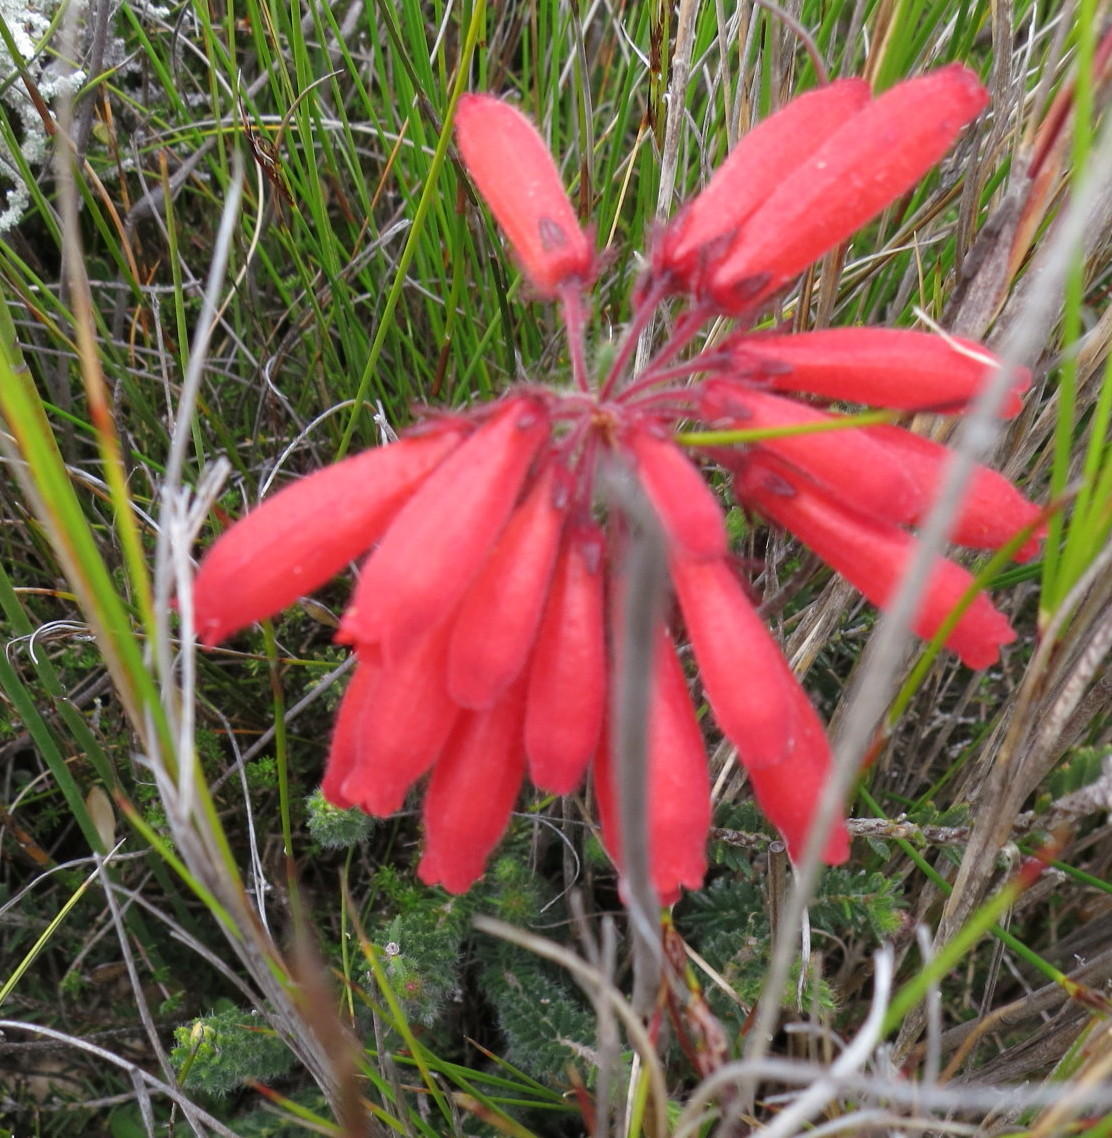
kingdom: Plantae
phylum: Tracheophyta
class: Magnoliopsida
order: Ericales
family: Ericaceae
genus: Erica
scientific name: Erica cerinthoides
